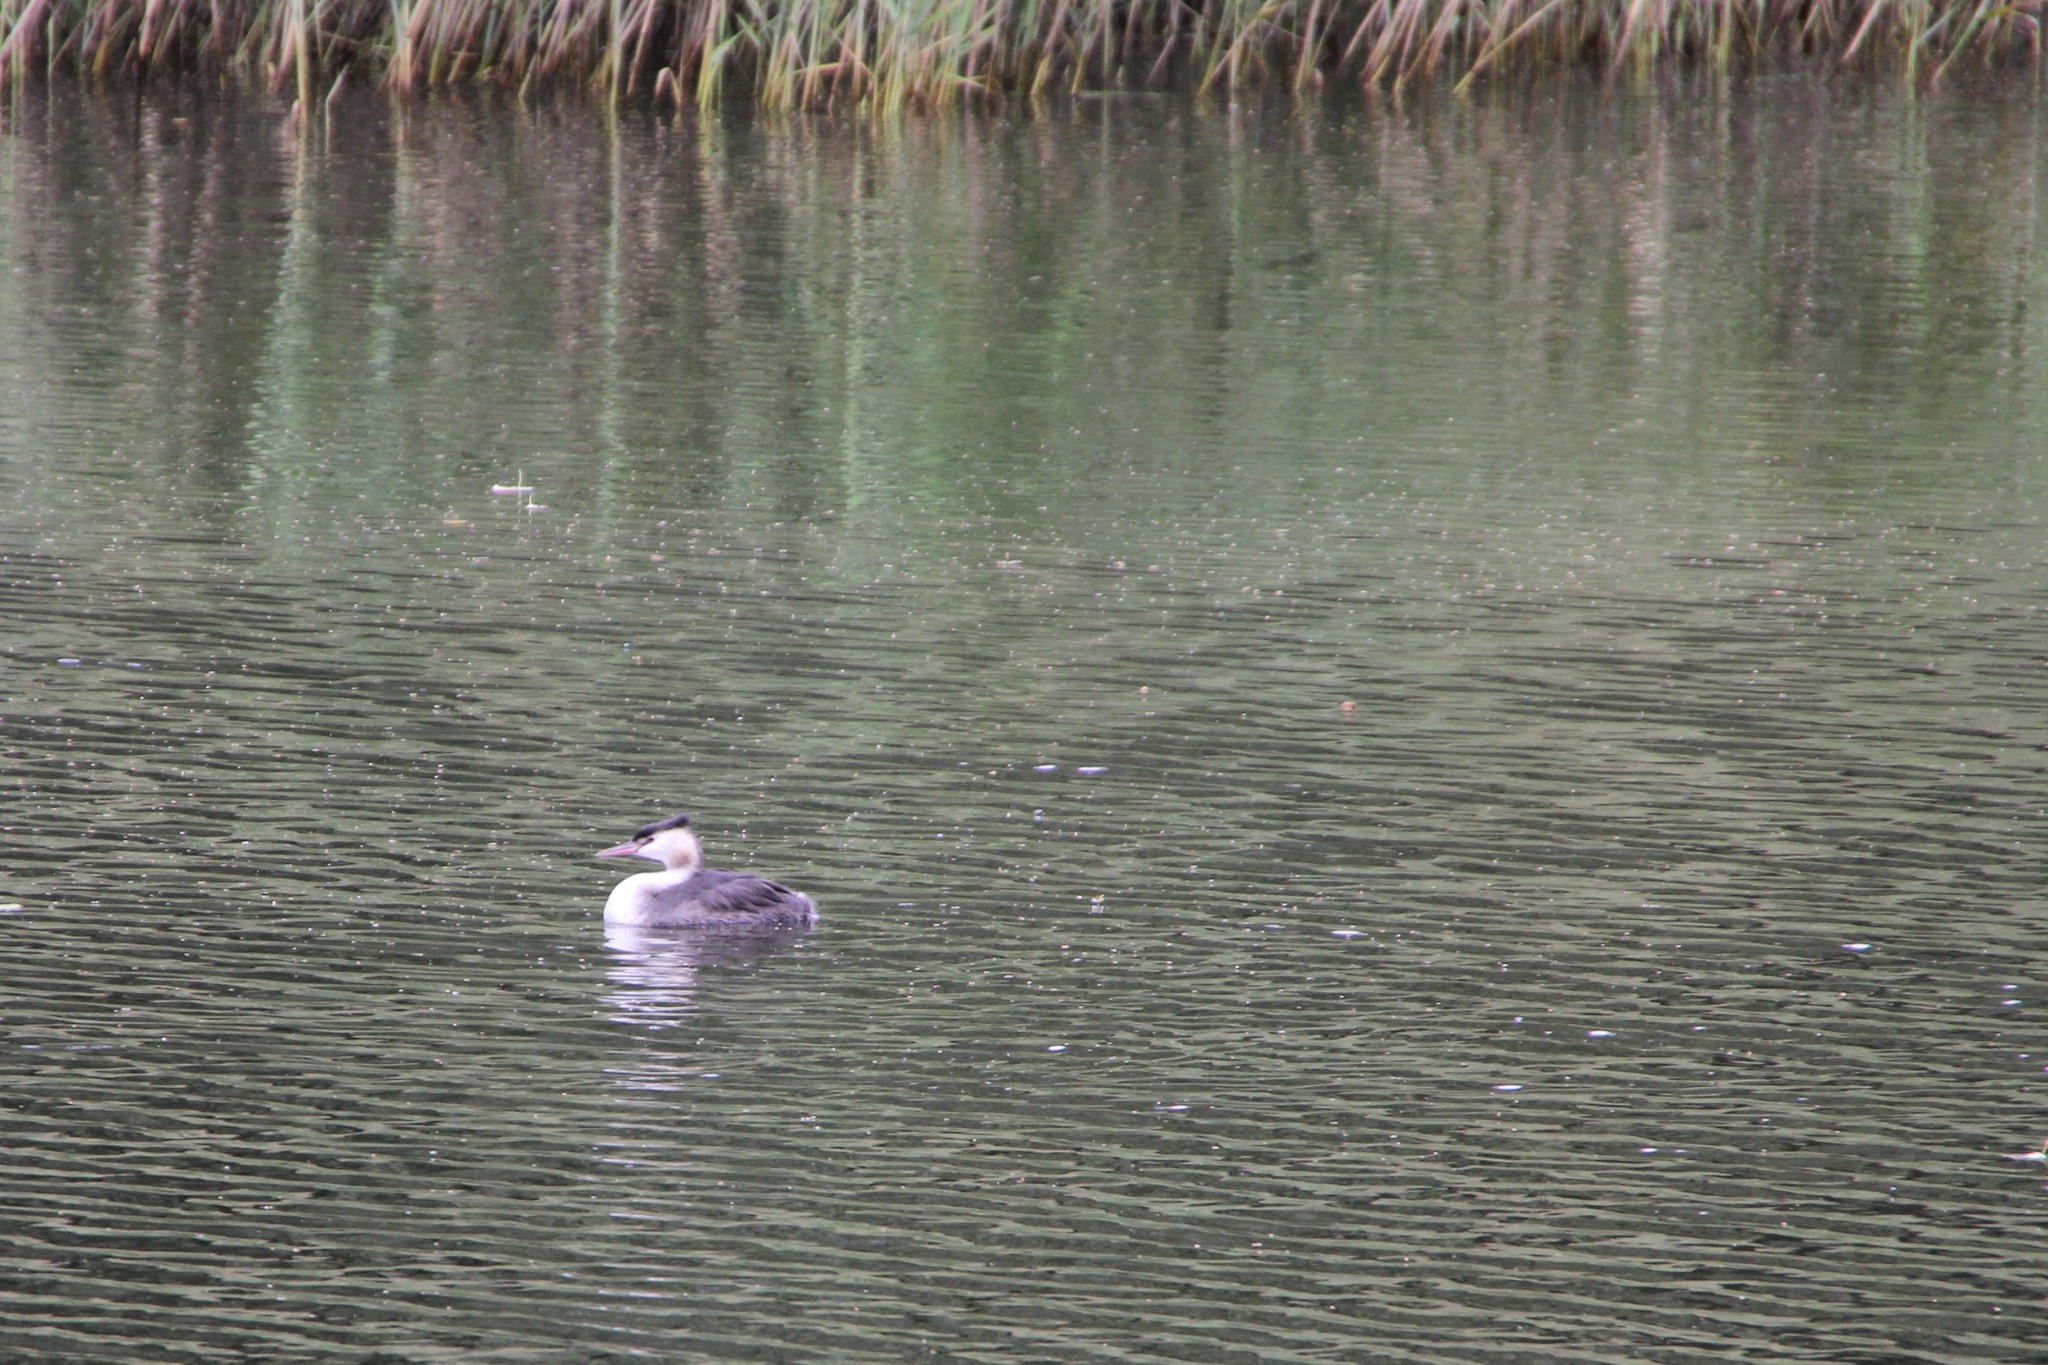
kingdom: Animalia
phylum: Chordata
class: Aves
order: Podicipediformes
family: Podicipedidae
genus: Podiceps
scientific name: Podiceps cristatus
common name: Great crested grebe
